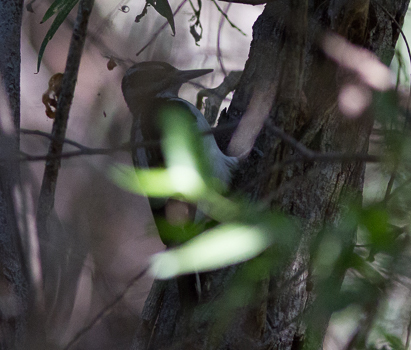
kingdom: Animalia
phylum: Chordata
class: Aves
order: Piciformes
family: Picidae
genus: Leuconotopicus
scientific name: Leuconotopicus villosus
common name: Hairy woodpecker
